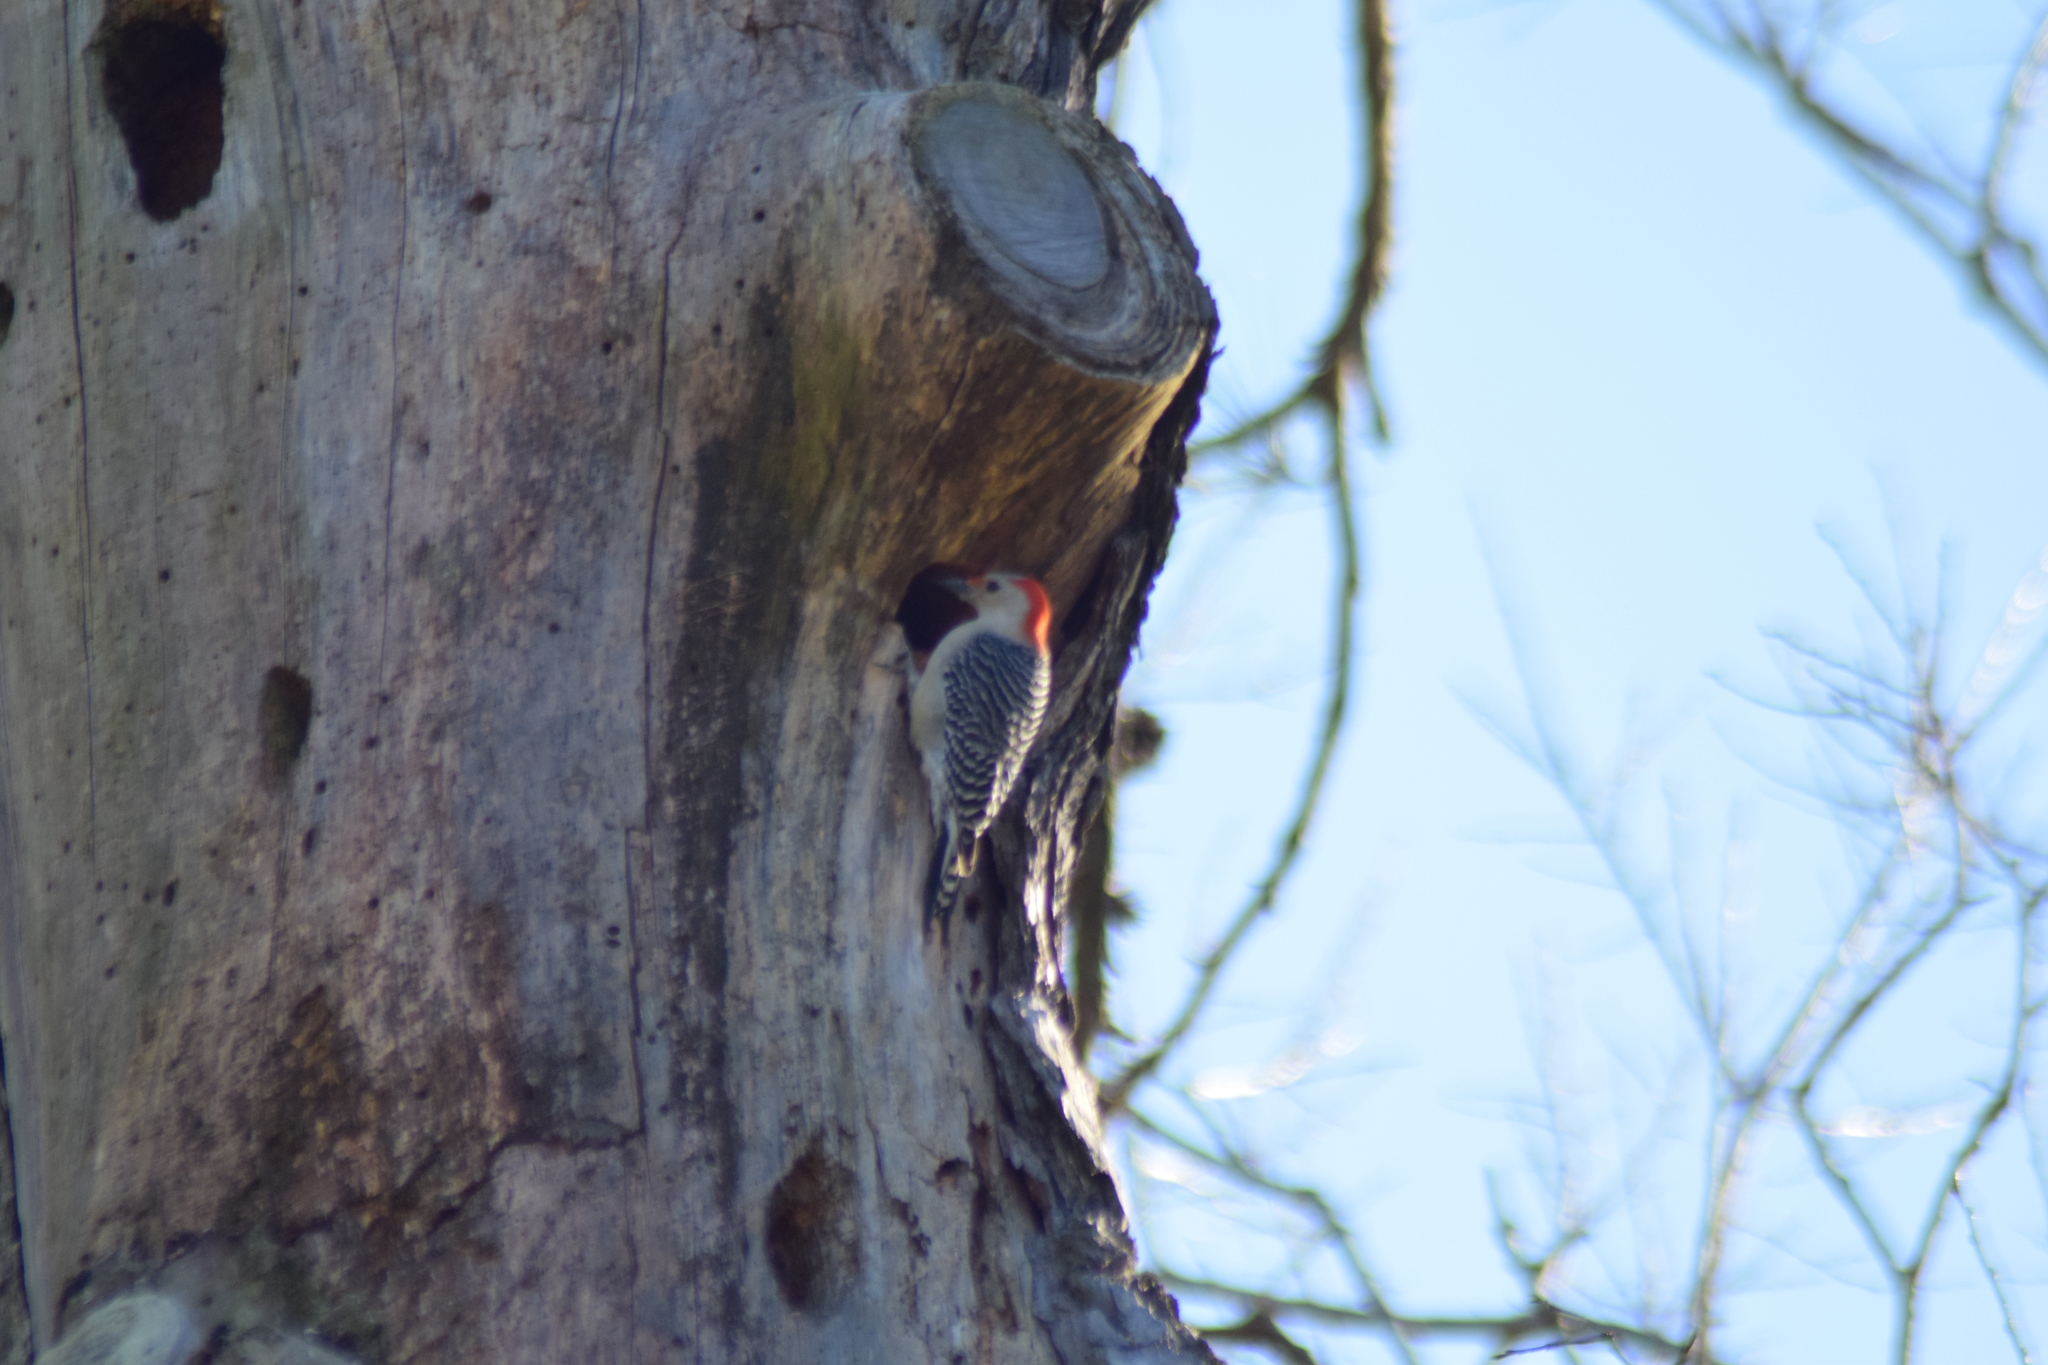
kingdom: Animalia
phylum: Chordata
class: Aves
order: Piciformes
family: Picidae
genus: Melanerpes
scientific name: Melanerpes carolinus
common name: Red-bellied woodpecker
